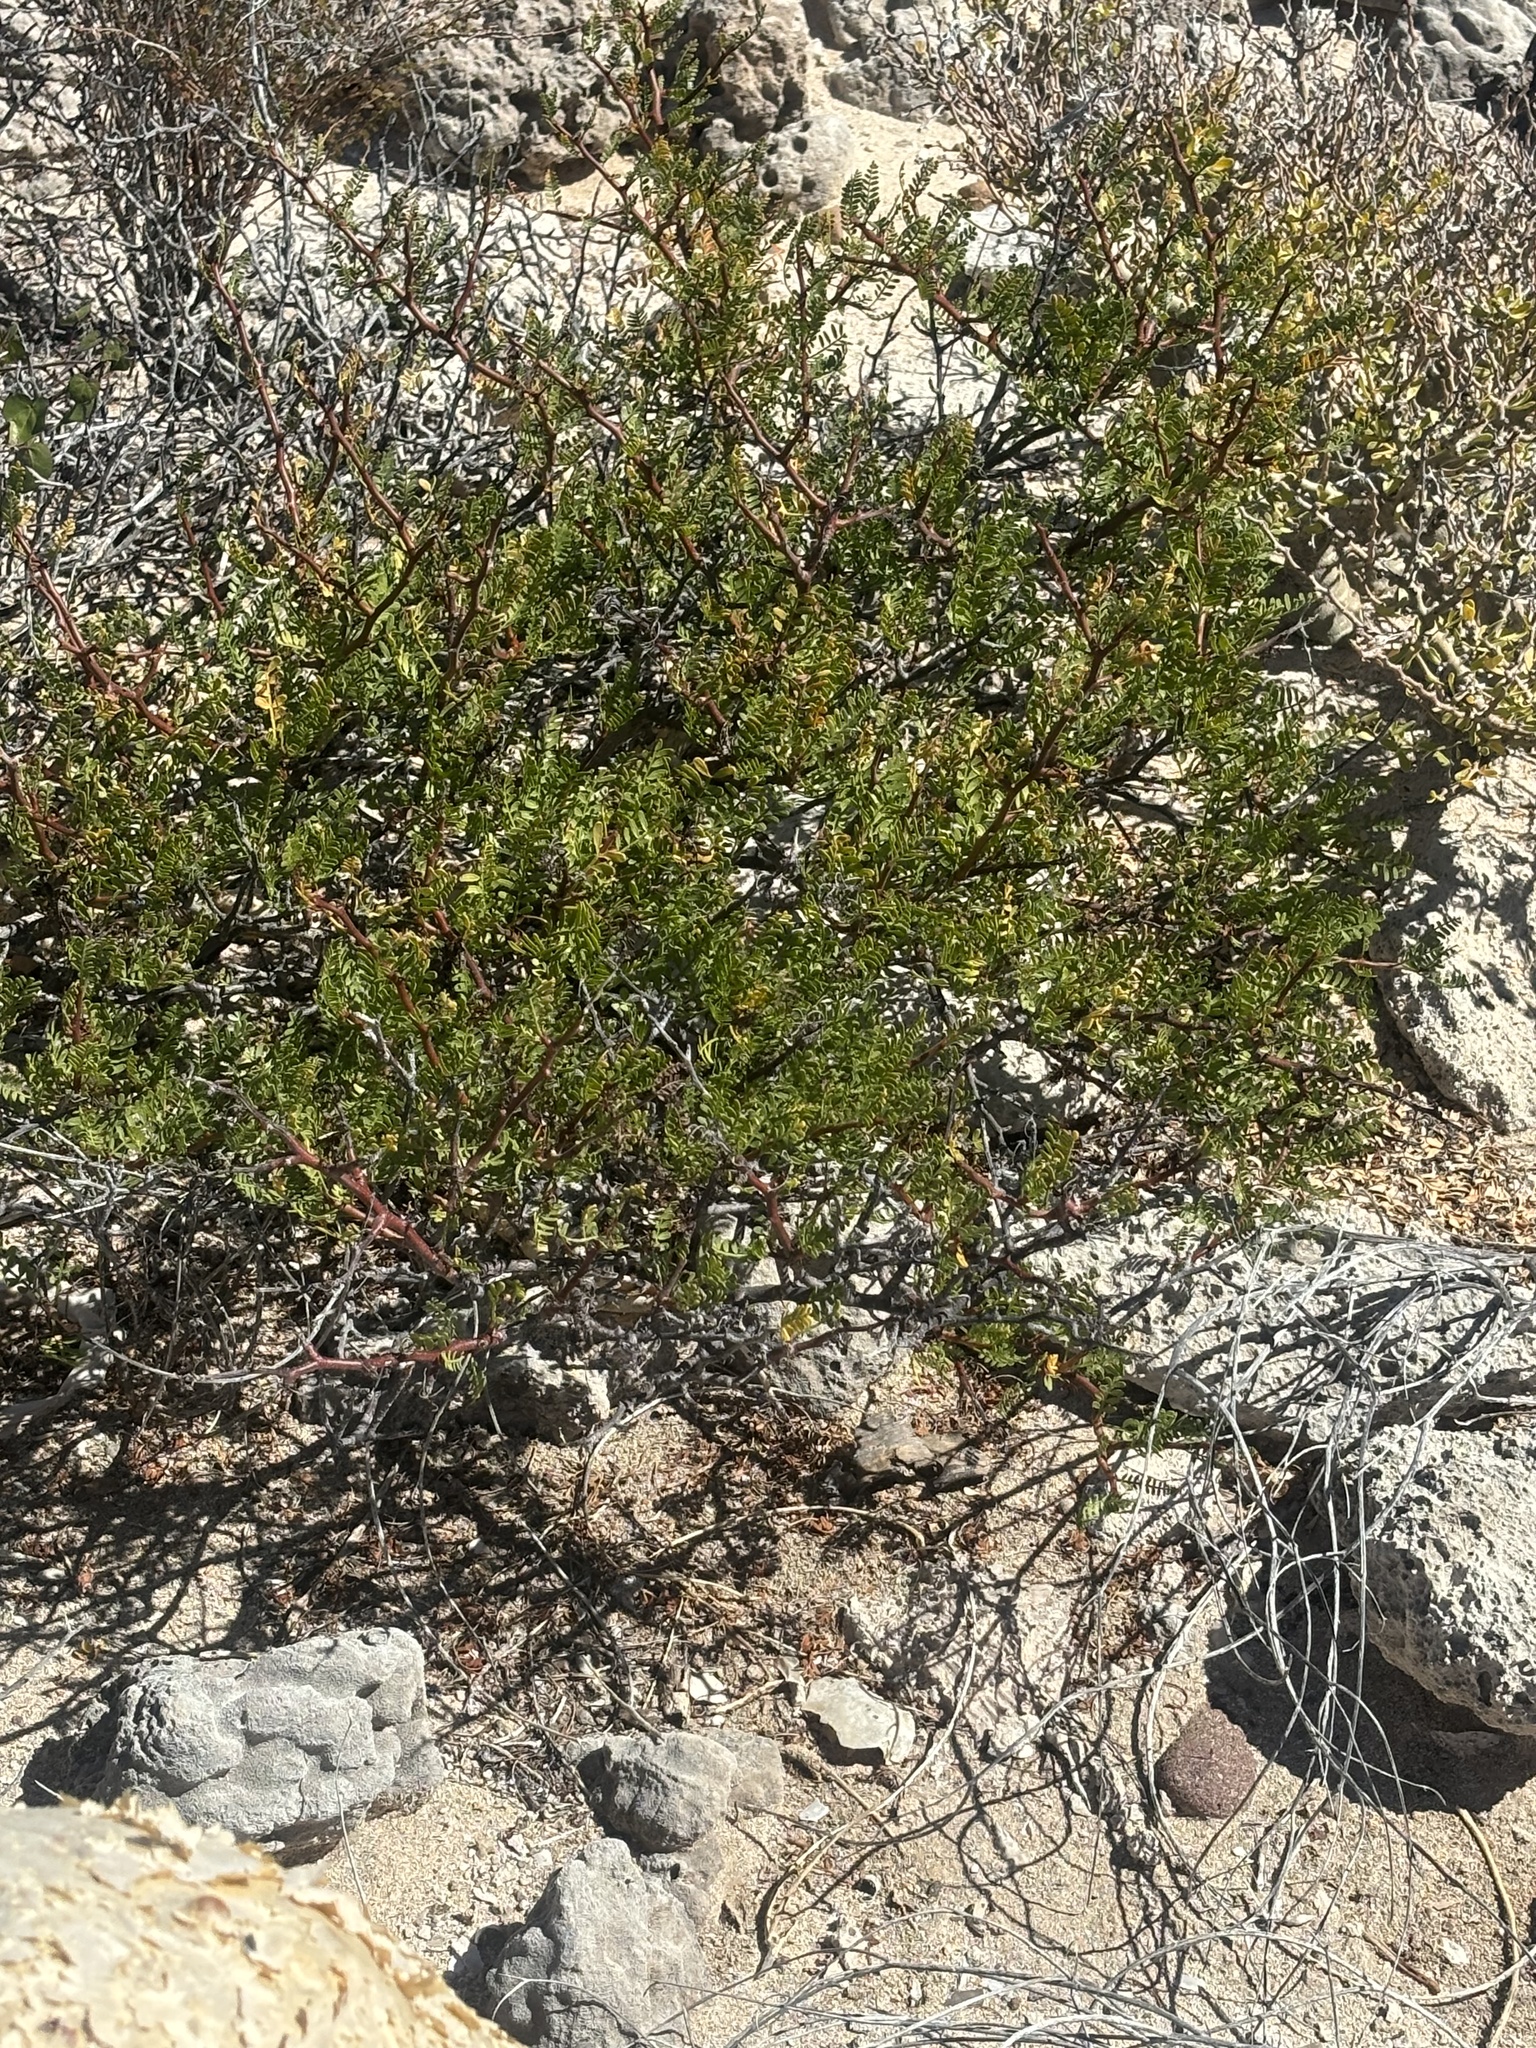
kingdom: Plantae
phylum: Tracheophyta
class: Magnoliopsida
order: Sapindales
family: Burseraceae
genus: Bursera
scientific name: Bursera microphylla
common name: Elephant tree
